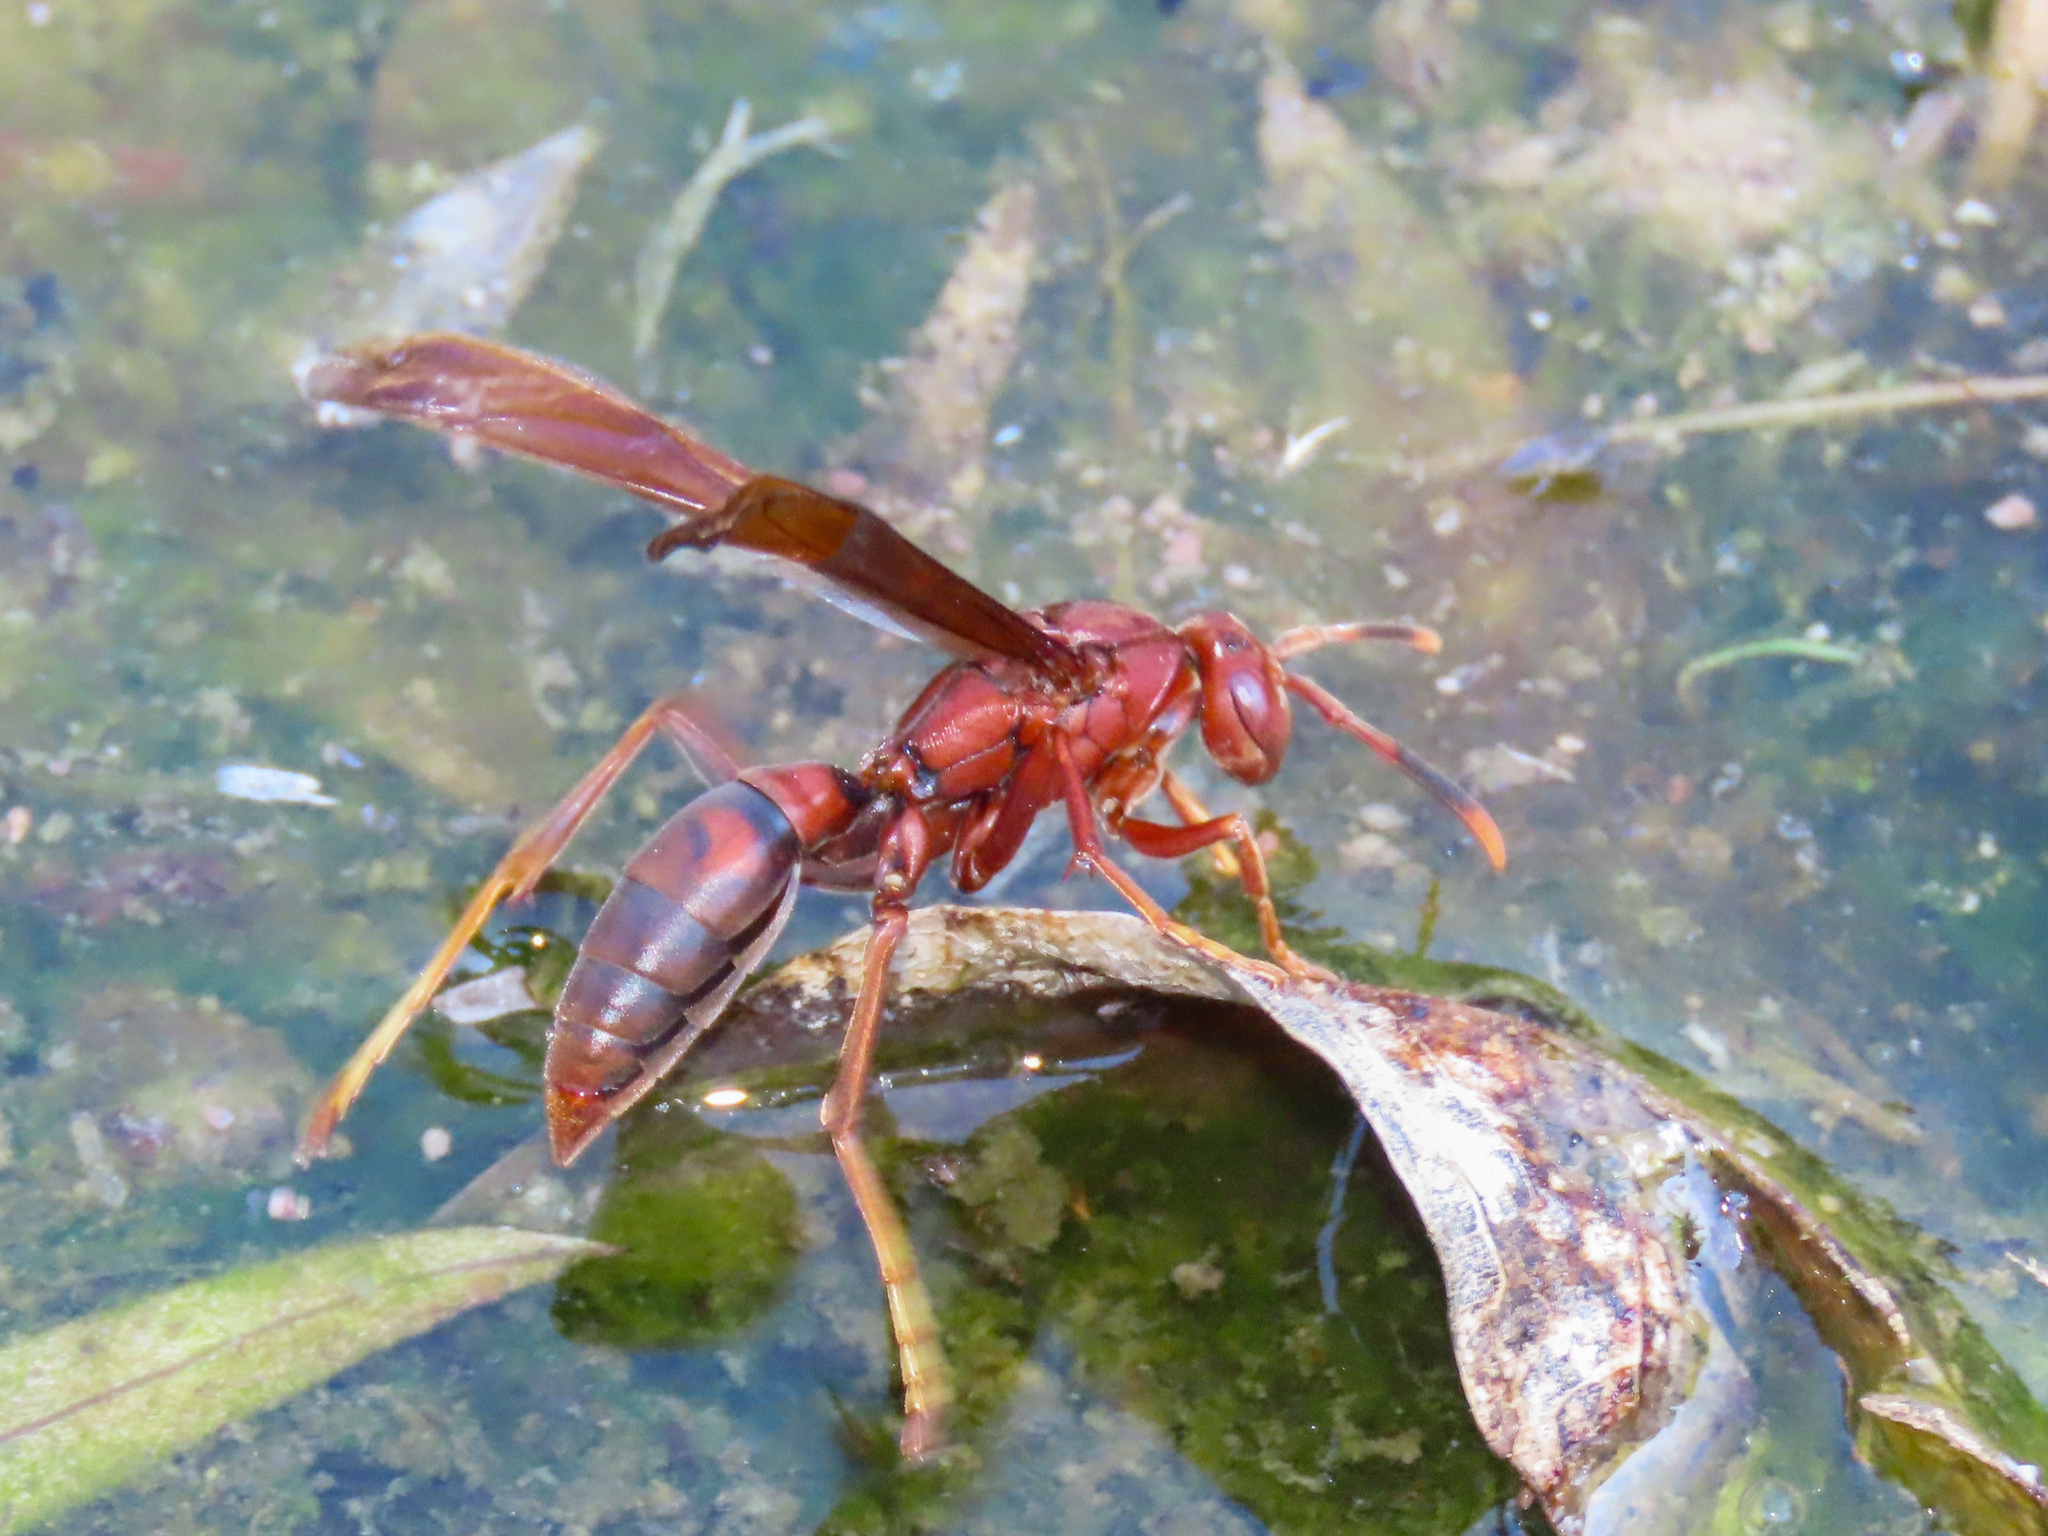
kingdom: Animalia
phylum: Arthropoda
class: Insecta
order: Hymenoptera
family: Eumenidae
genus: Polistes
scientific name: Polistes canadensis
